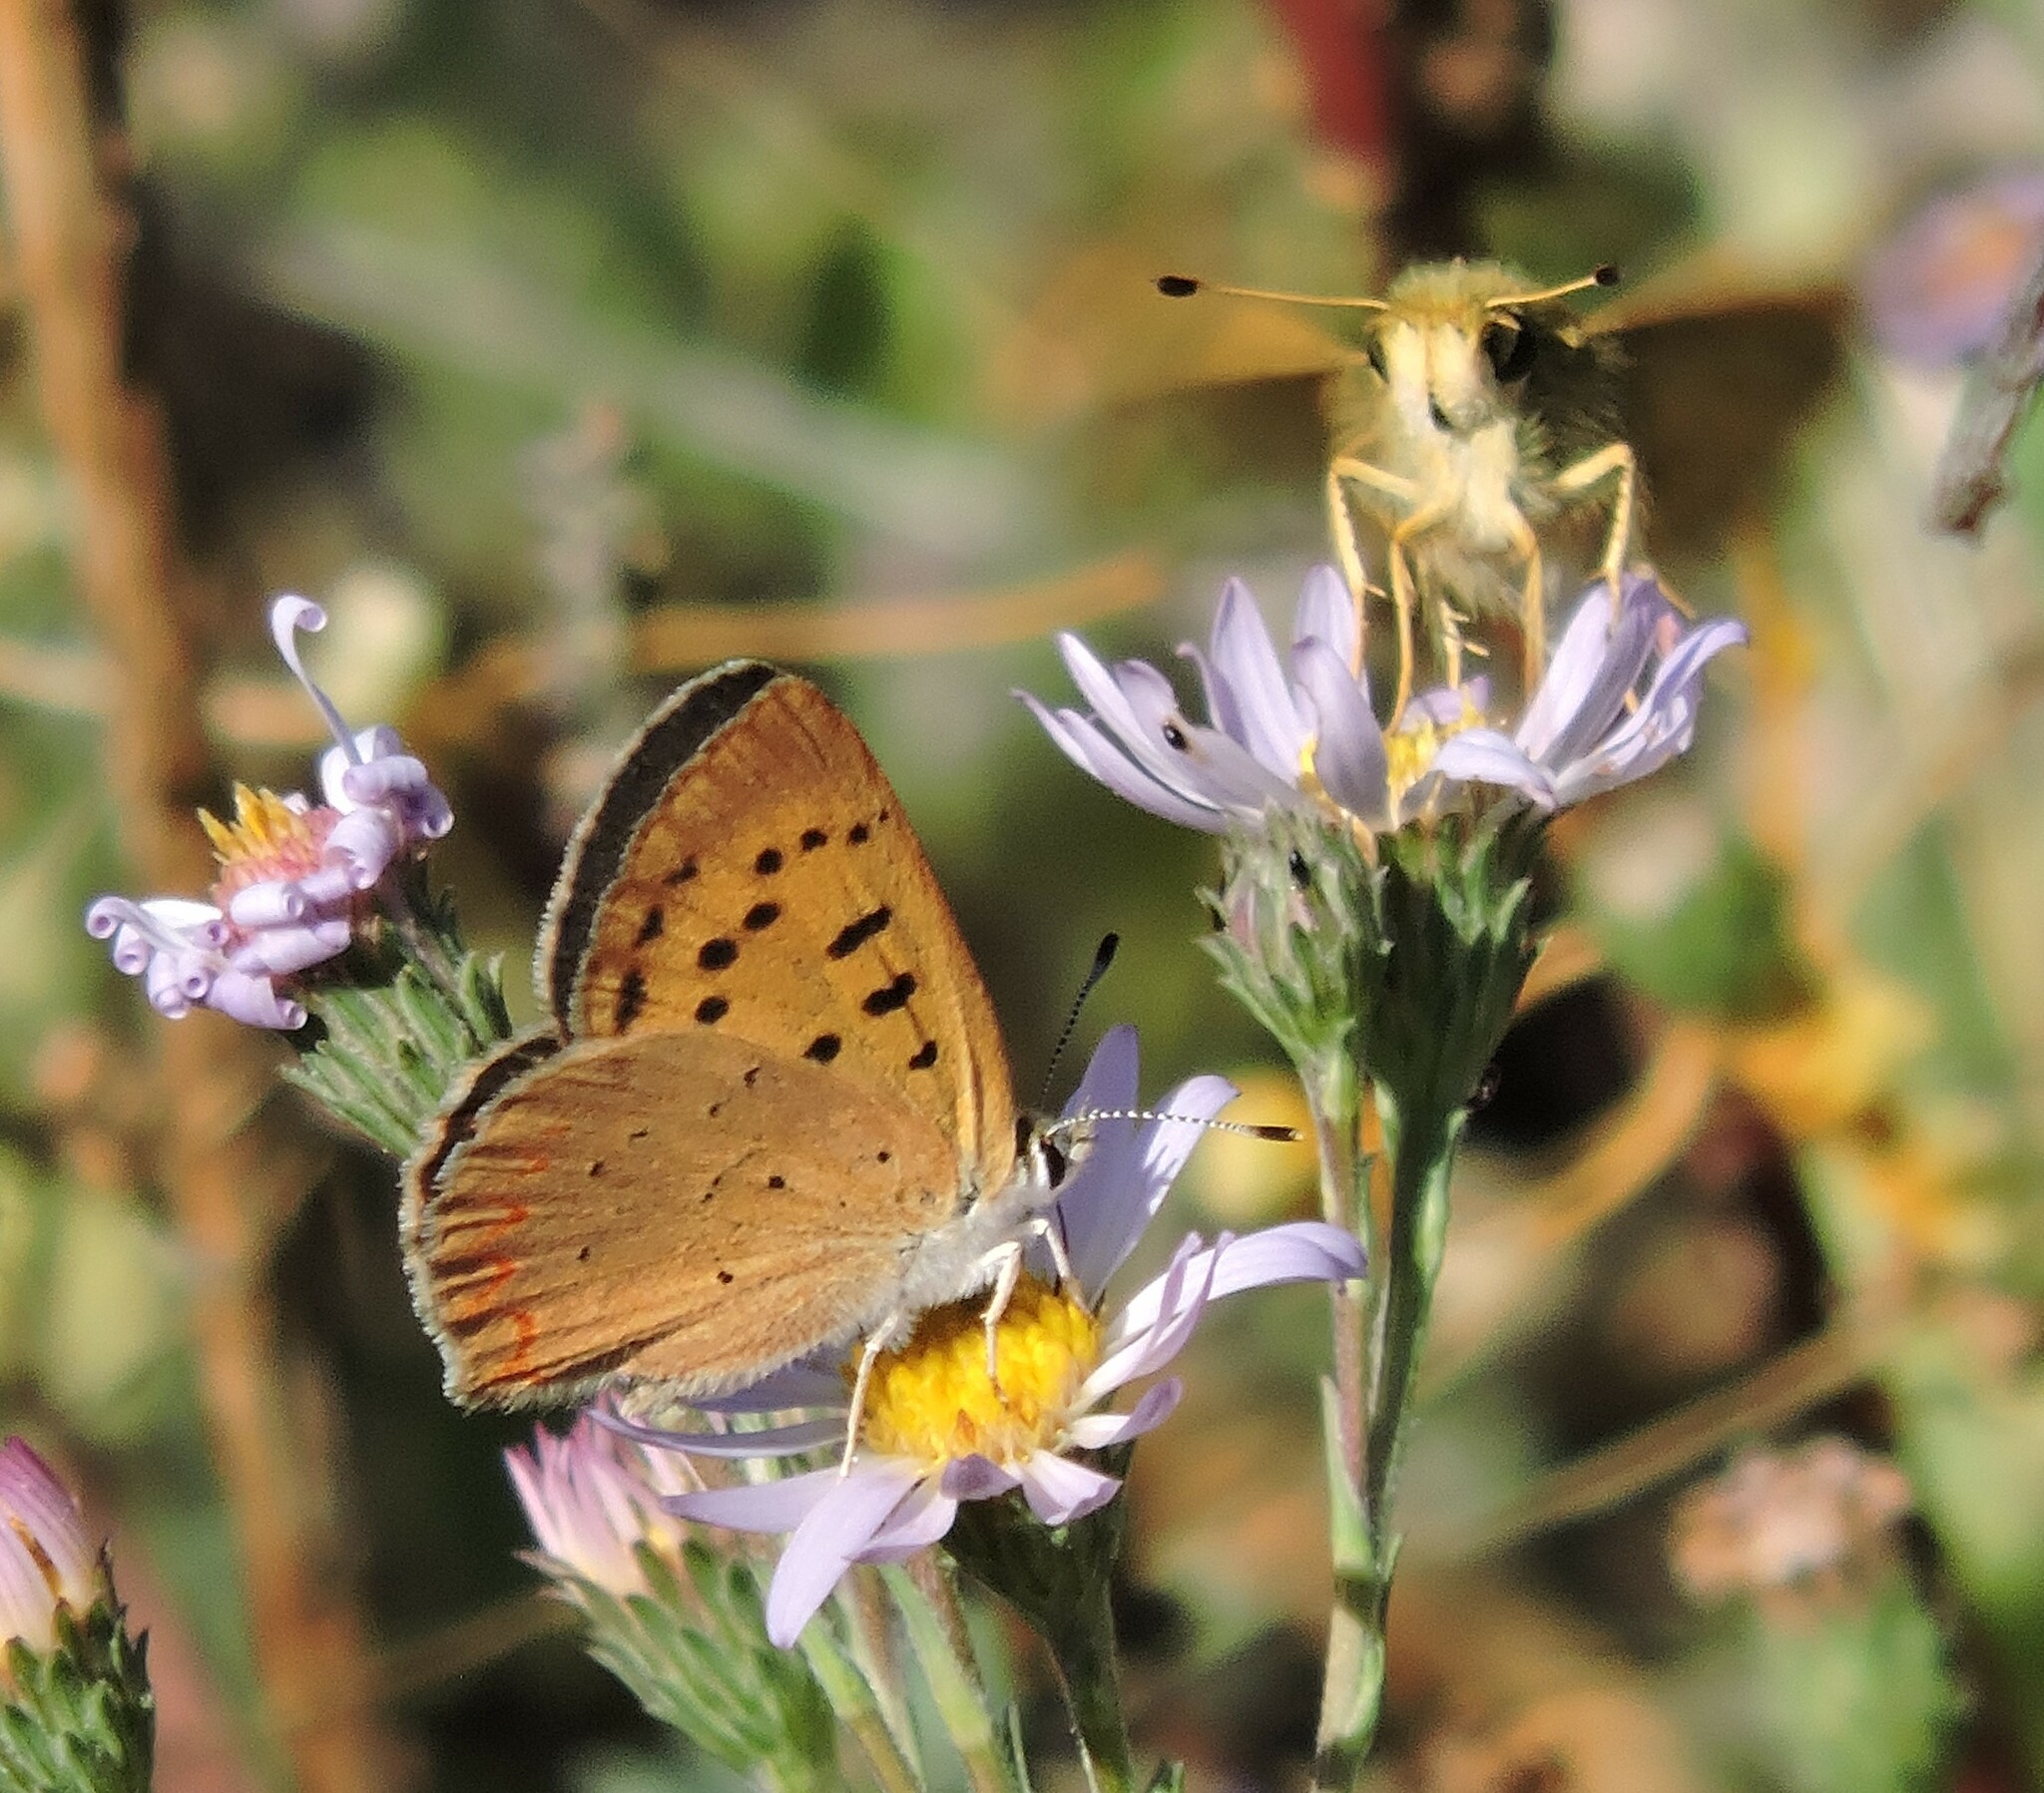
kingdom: Animalia
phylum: Arthropoda
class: Insecta
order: Lepidoptera
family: Lycaenidae
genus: Tharsalea
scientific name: Tharsalea helloides
